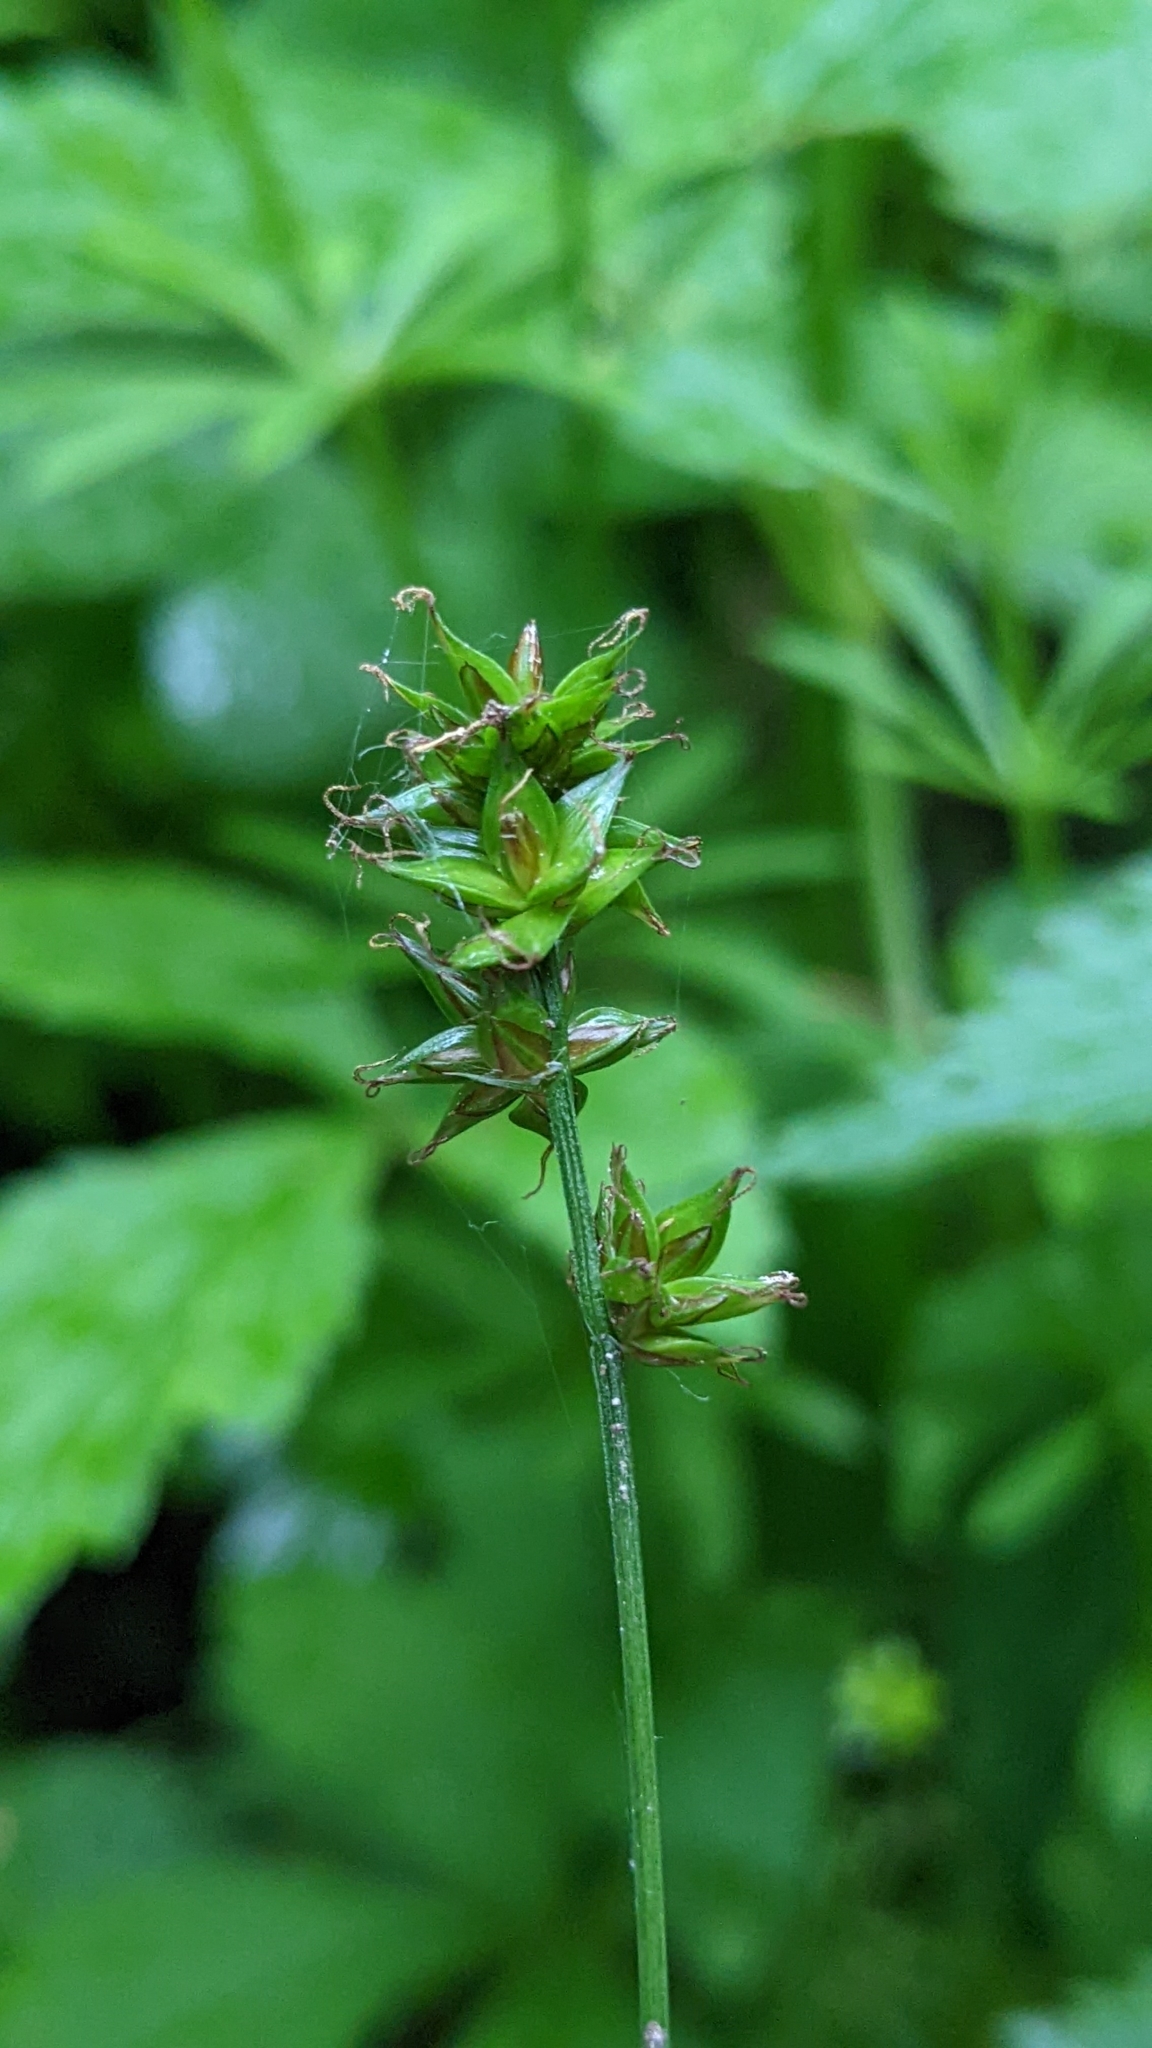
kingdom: Plantae
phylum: Tracheophyta
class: Liliopsida
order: Poales
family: Cyperaceae
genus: Carex
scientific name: Carex muricata
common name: Rough sedge
